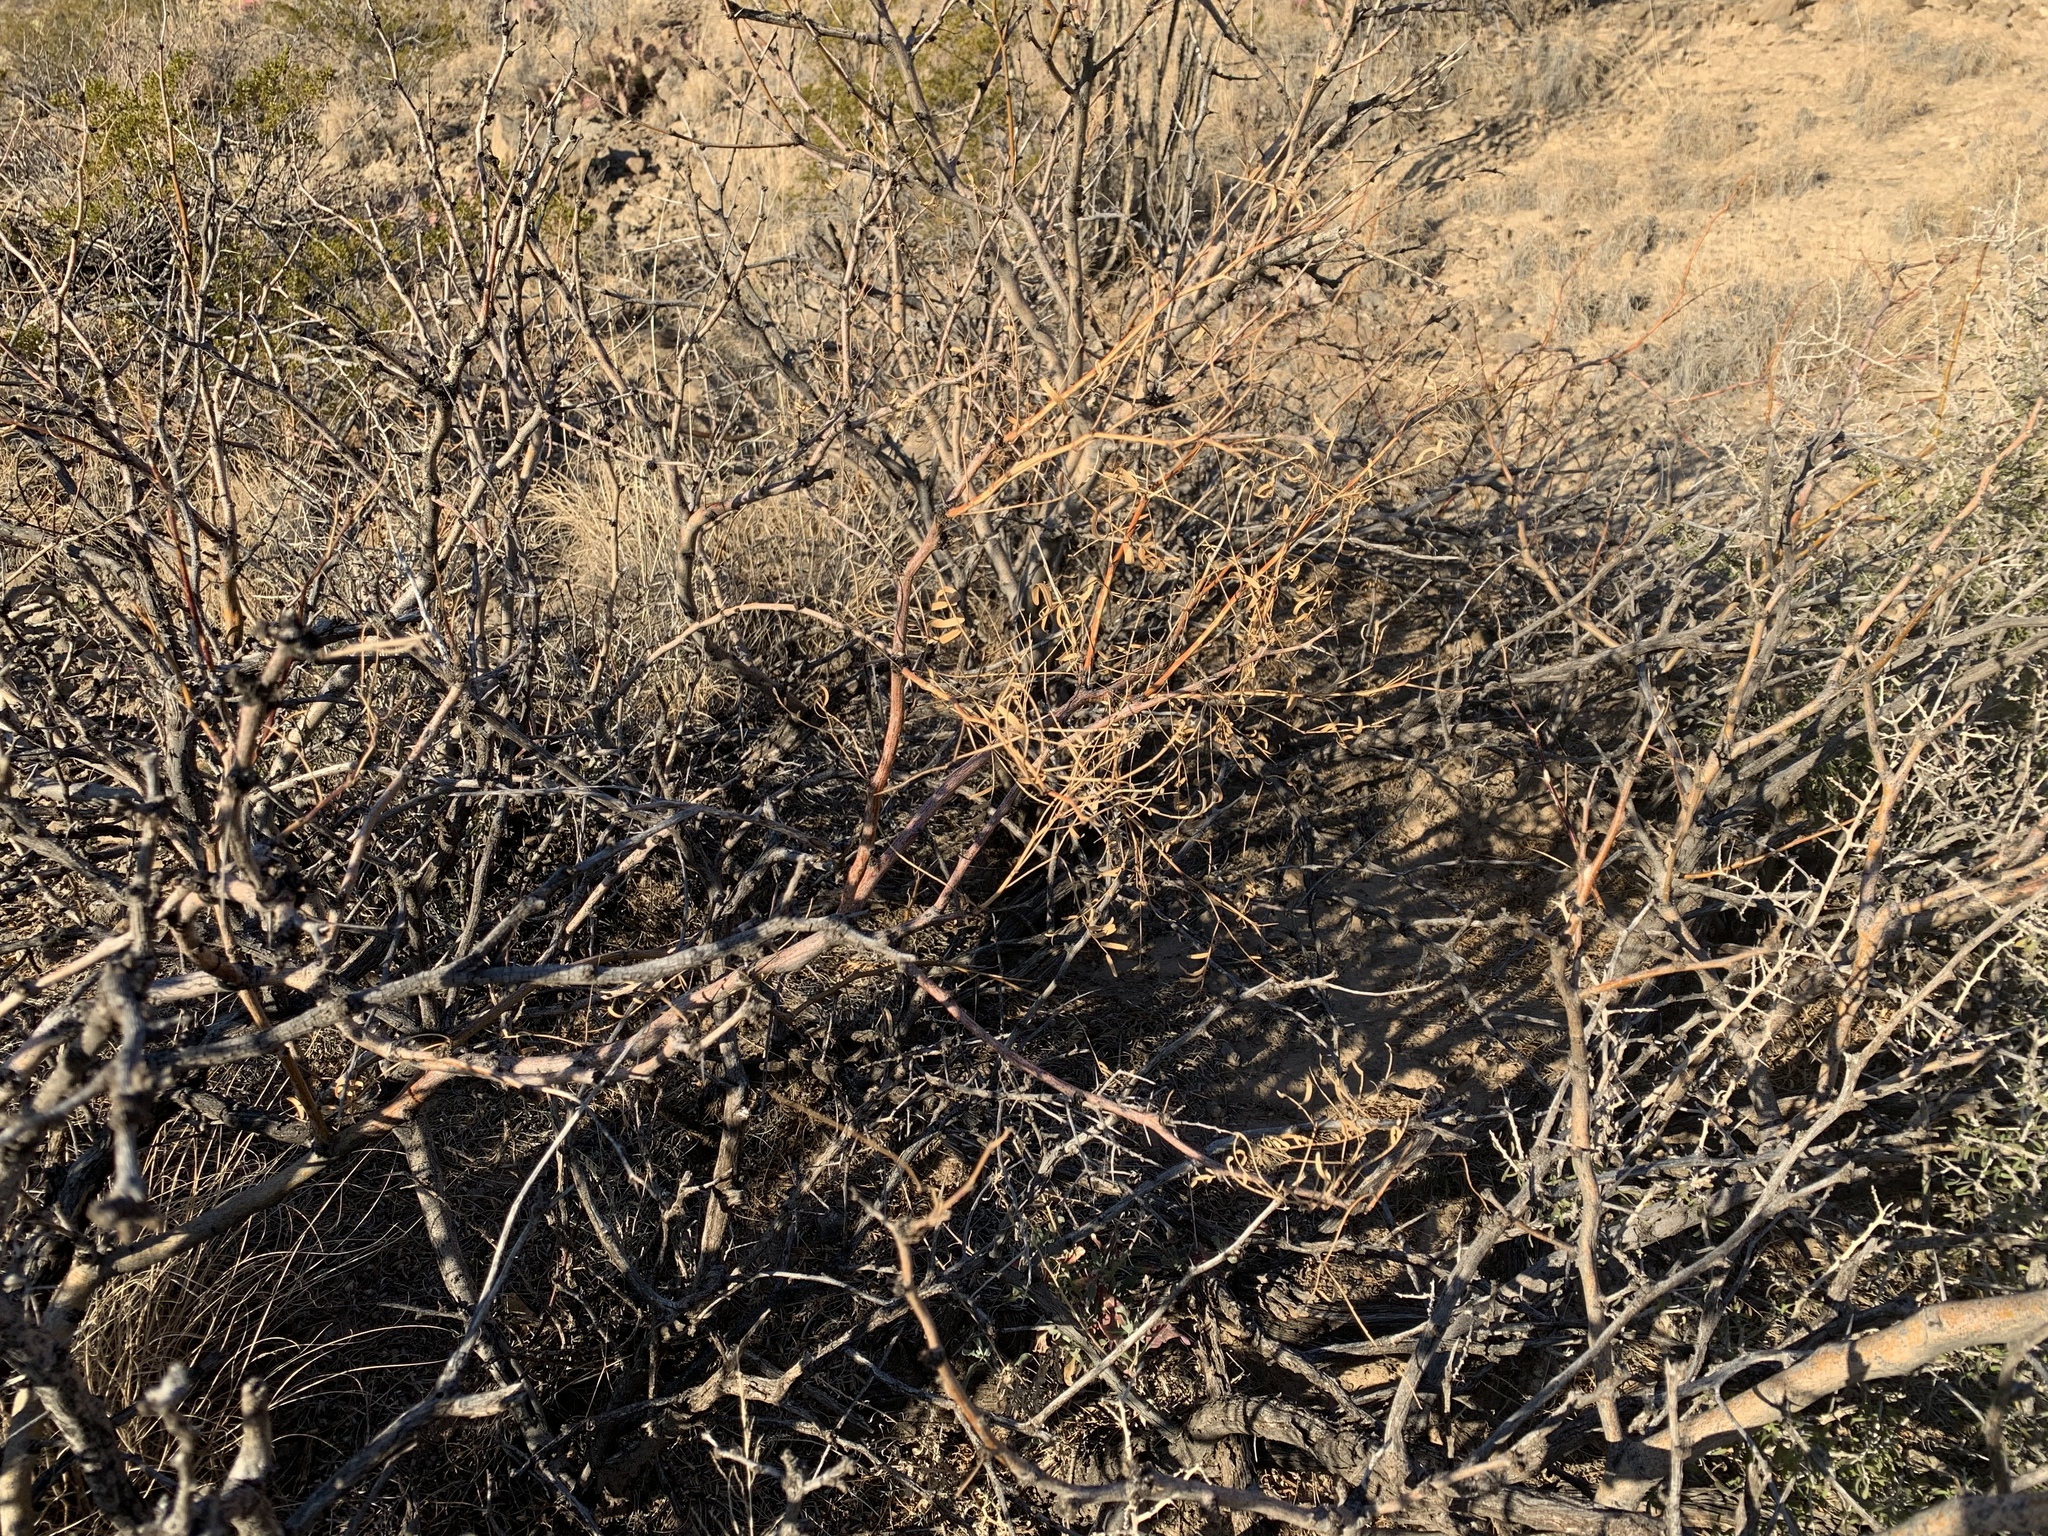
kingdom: Plantae
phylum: Tracheophyta
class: Magnoliopsida
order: Fabales
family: Fabaceae
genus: Prosopis
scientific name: Prosopis glandulosa
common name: Honey mesquite
